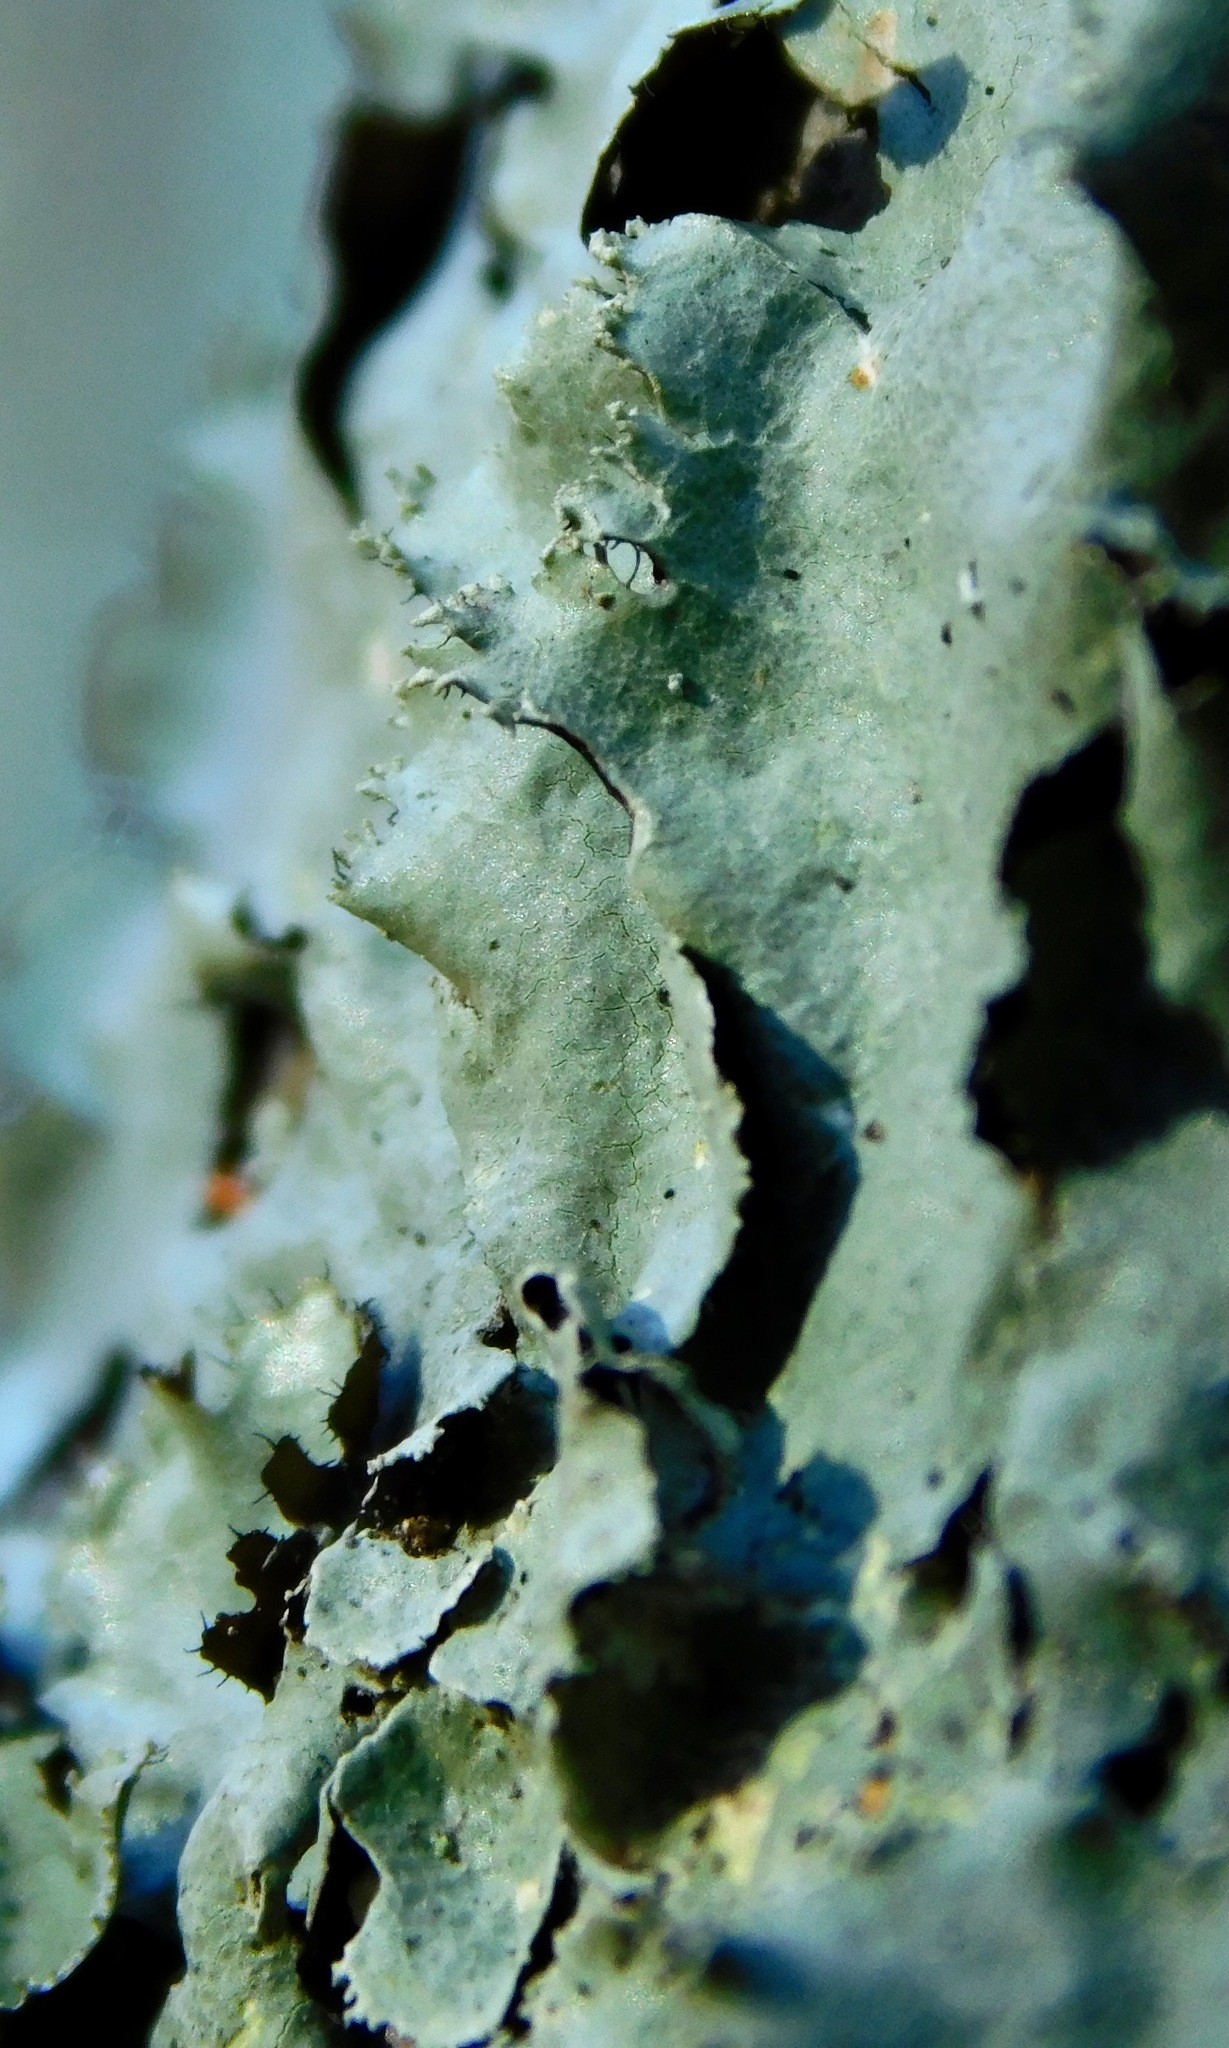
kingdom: Fungi
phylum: Ascomycota
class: Lecanoromycetes
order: Lecanorales
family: Parmeliaceae
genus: Rimelia
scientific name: Rimelia subisidiosa
